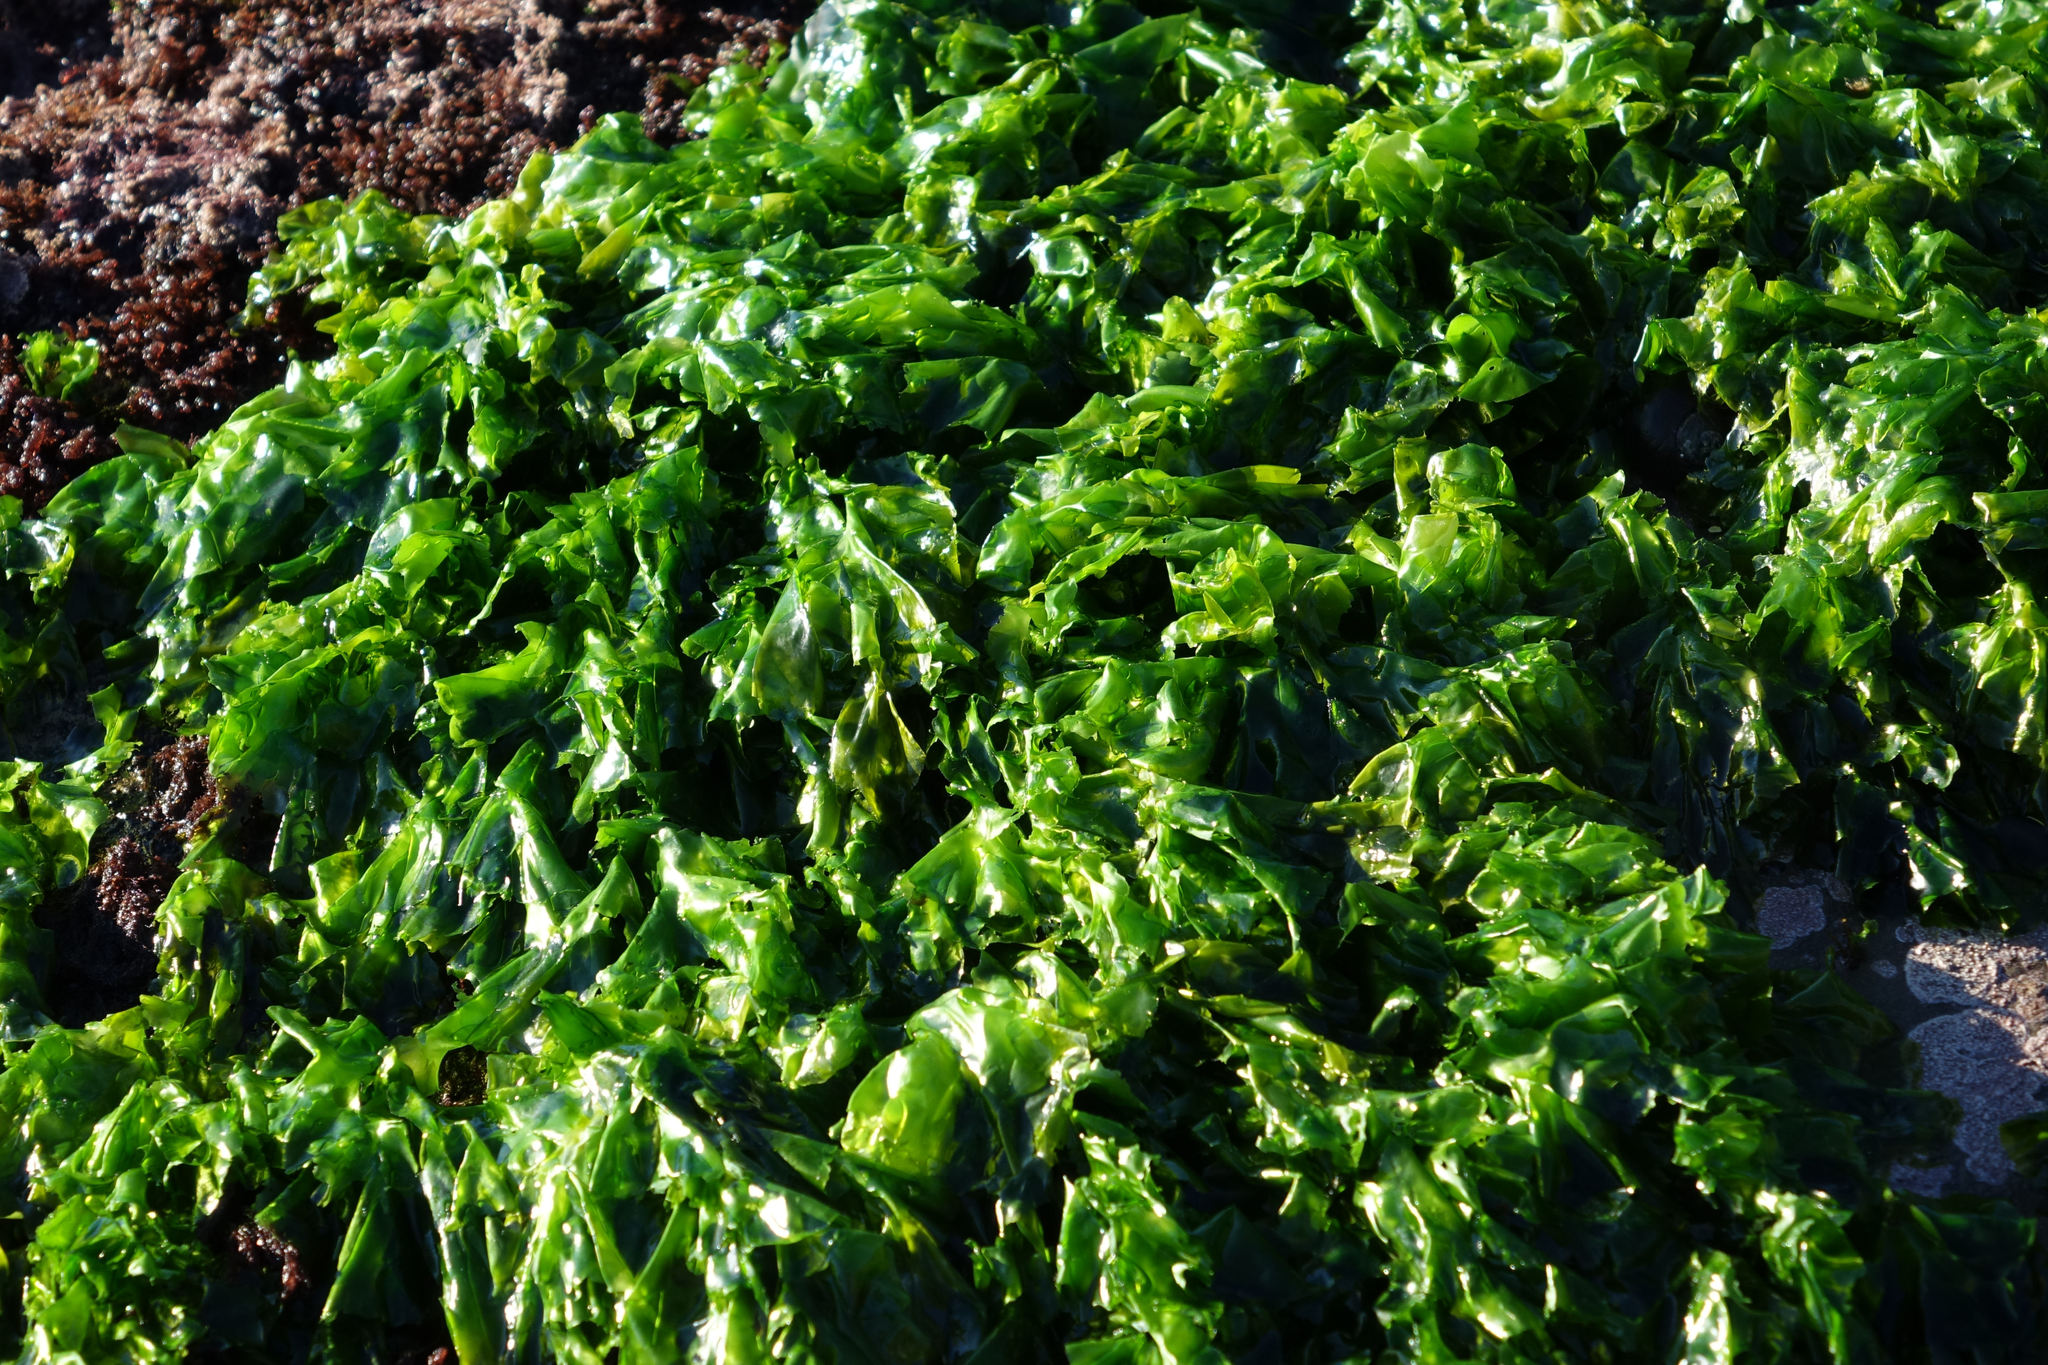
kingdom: Plantae
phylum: Chlorophyta
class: Ulvophyceae
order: Ulvales
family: Ulvaceae
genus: Ulva
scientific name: Ulva
